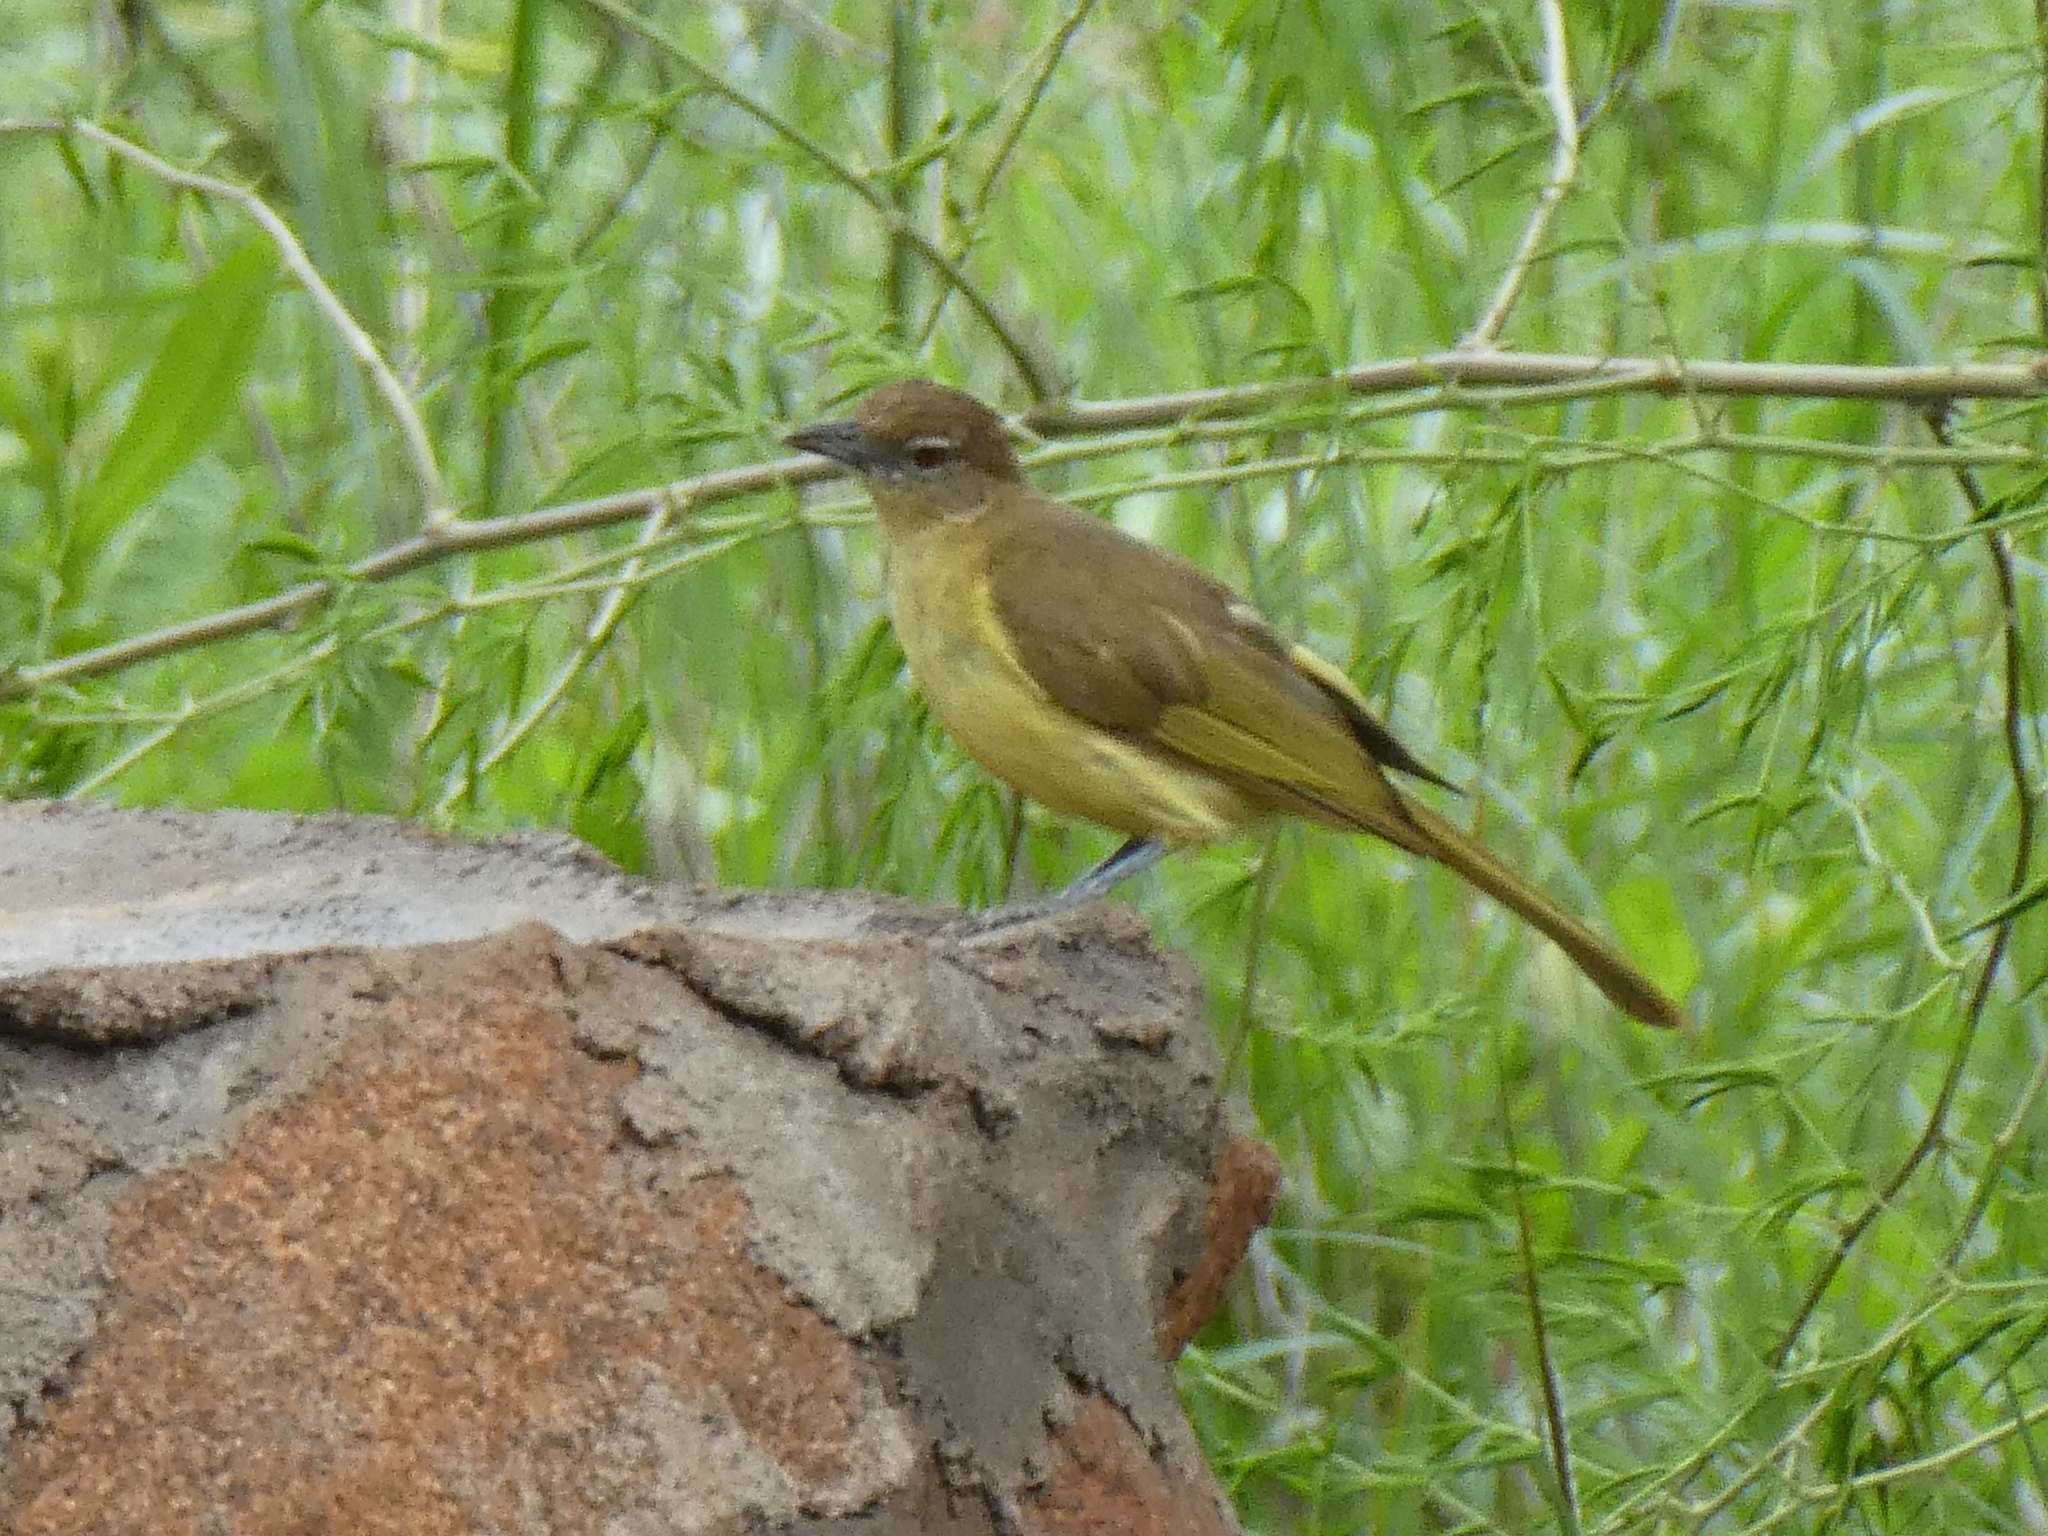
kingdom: Animalia
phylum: Chordata
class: Aves
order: Passeriformes
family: Pycnonotidae
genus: Chlorocichla
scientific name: Chlorocichla flaviventris
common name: Yellow-bellied greenbul
